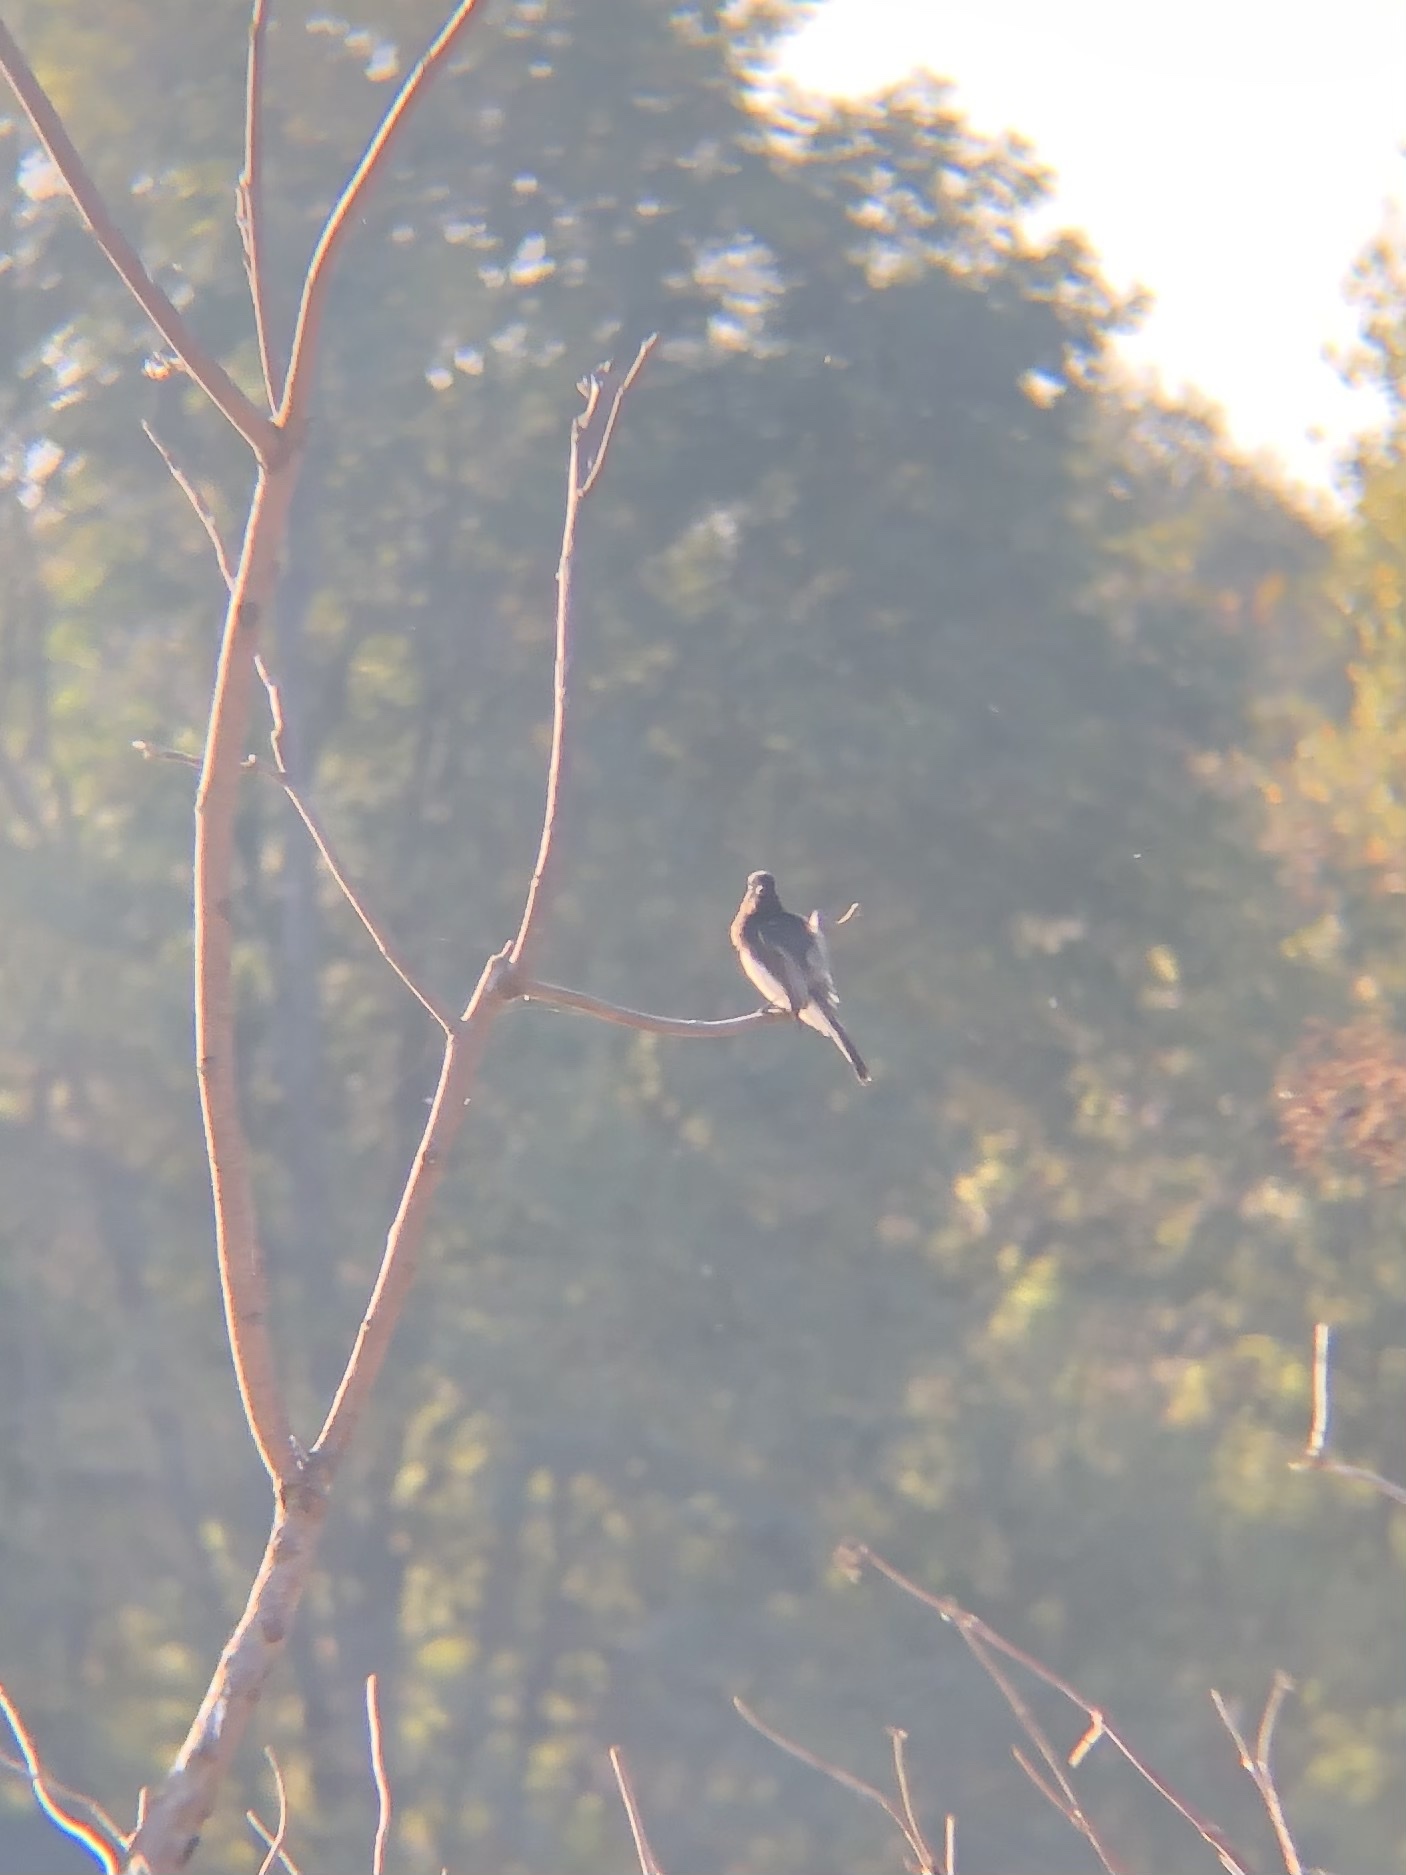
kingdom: Animalia
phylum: Chordata
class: Aves
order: Passeriformes
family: Tyrannidae
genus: Sayornis
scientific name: Sayornis nigricans
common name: Black phoebe
